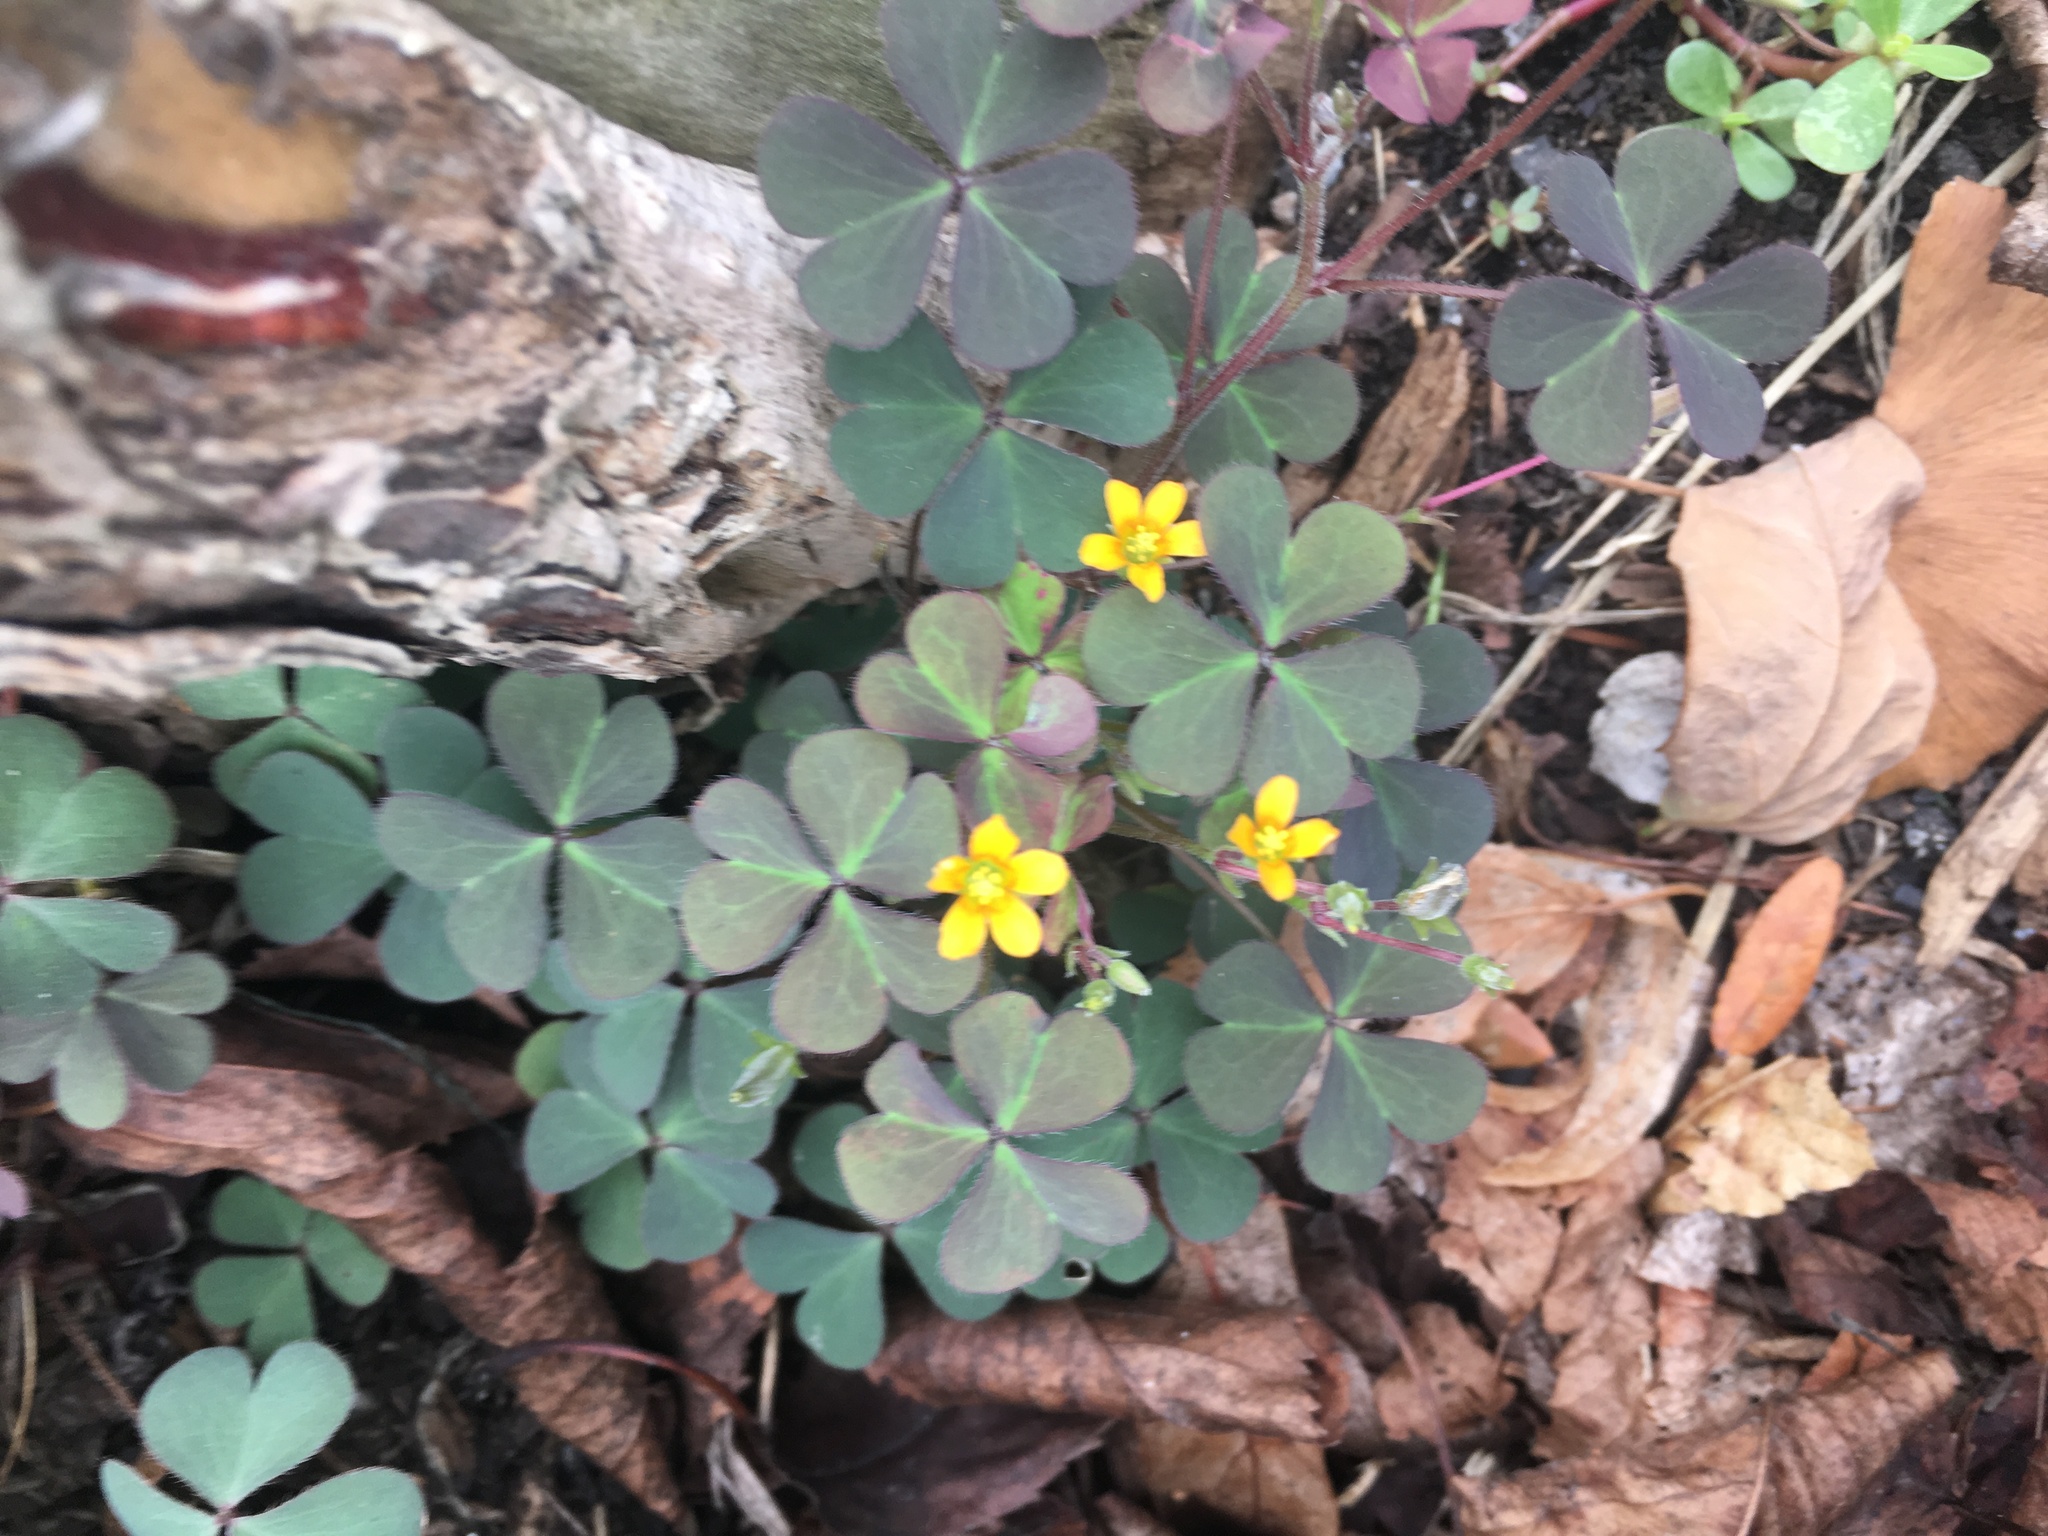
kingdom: Plantae
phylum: Tracheophyta
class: Magnoliopsida
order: Oxalidales
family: Oxalidaceae
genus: Oxalis
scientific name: Oxalis corniculata
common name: Procumbent yellow-sorrel
